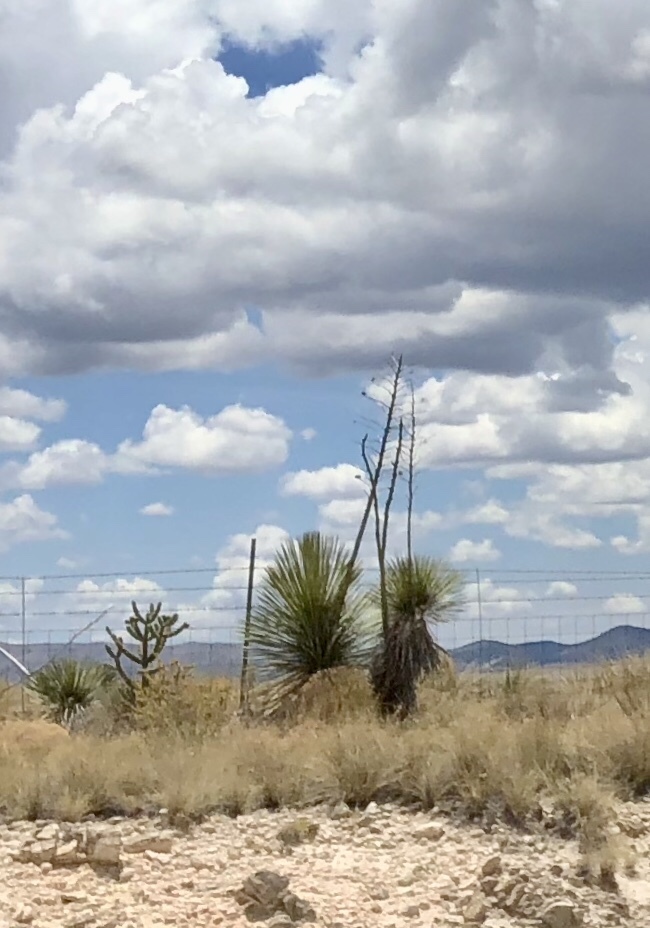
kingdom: Plantae
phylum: Tracheophyta
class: Liliopsida
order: Asparagales
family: Asparagaceae
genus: Yucca
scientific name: Yucca elata
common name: Palmella
